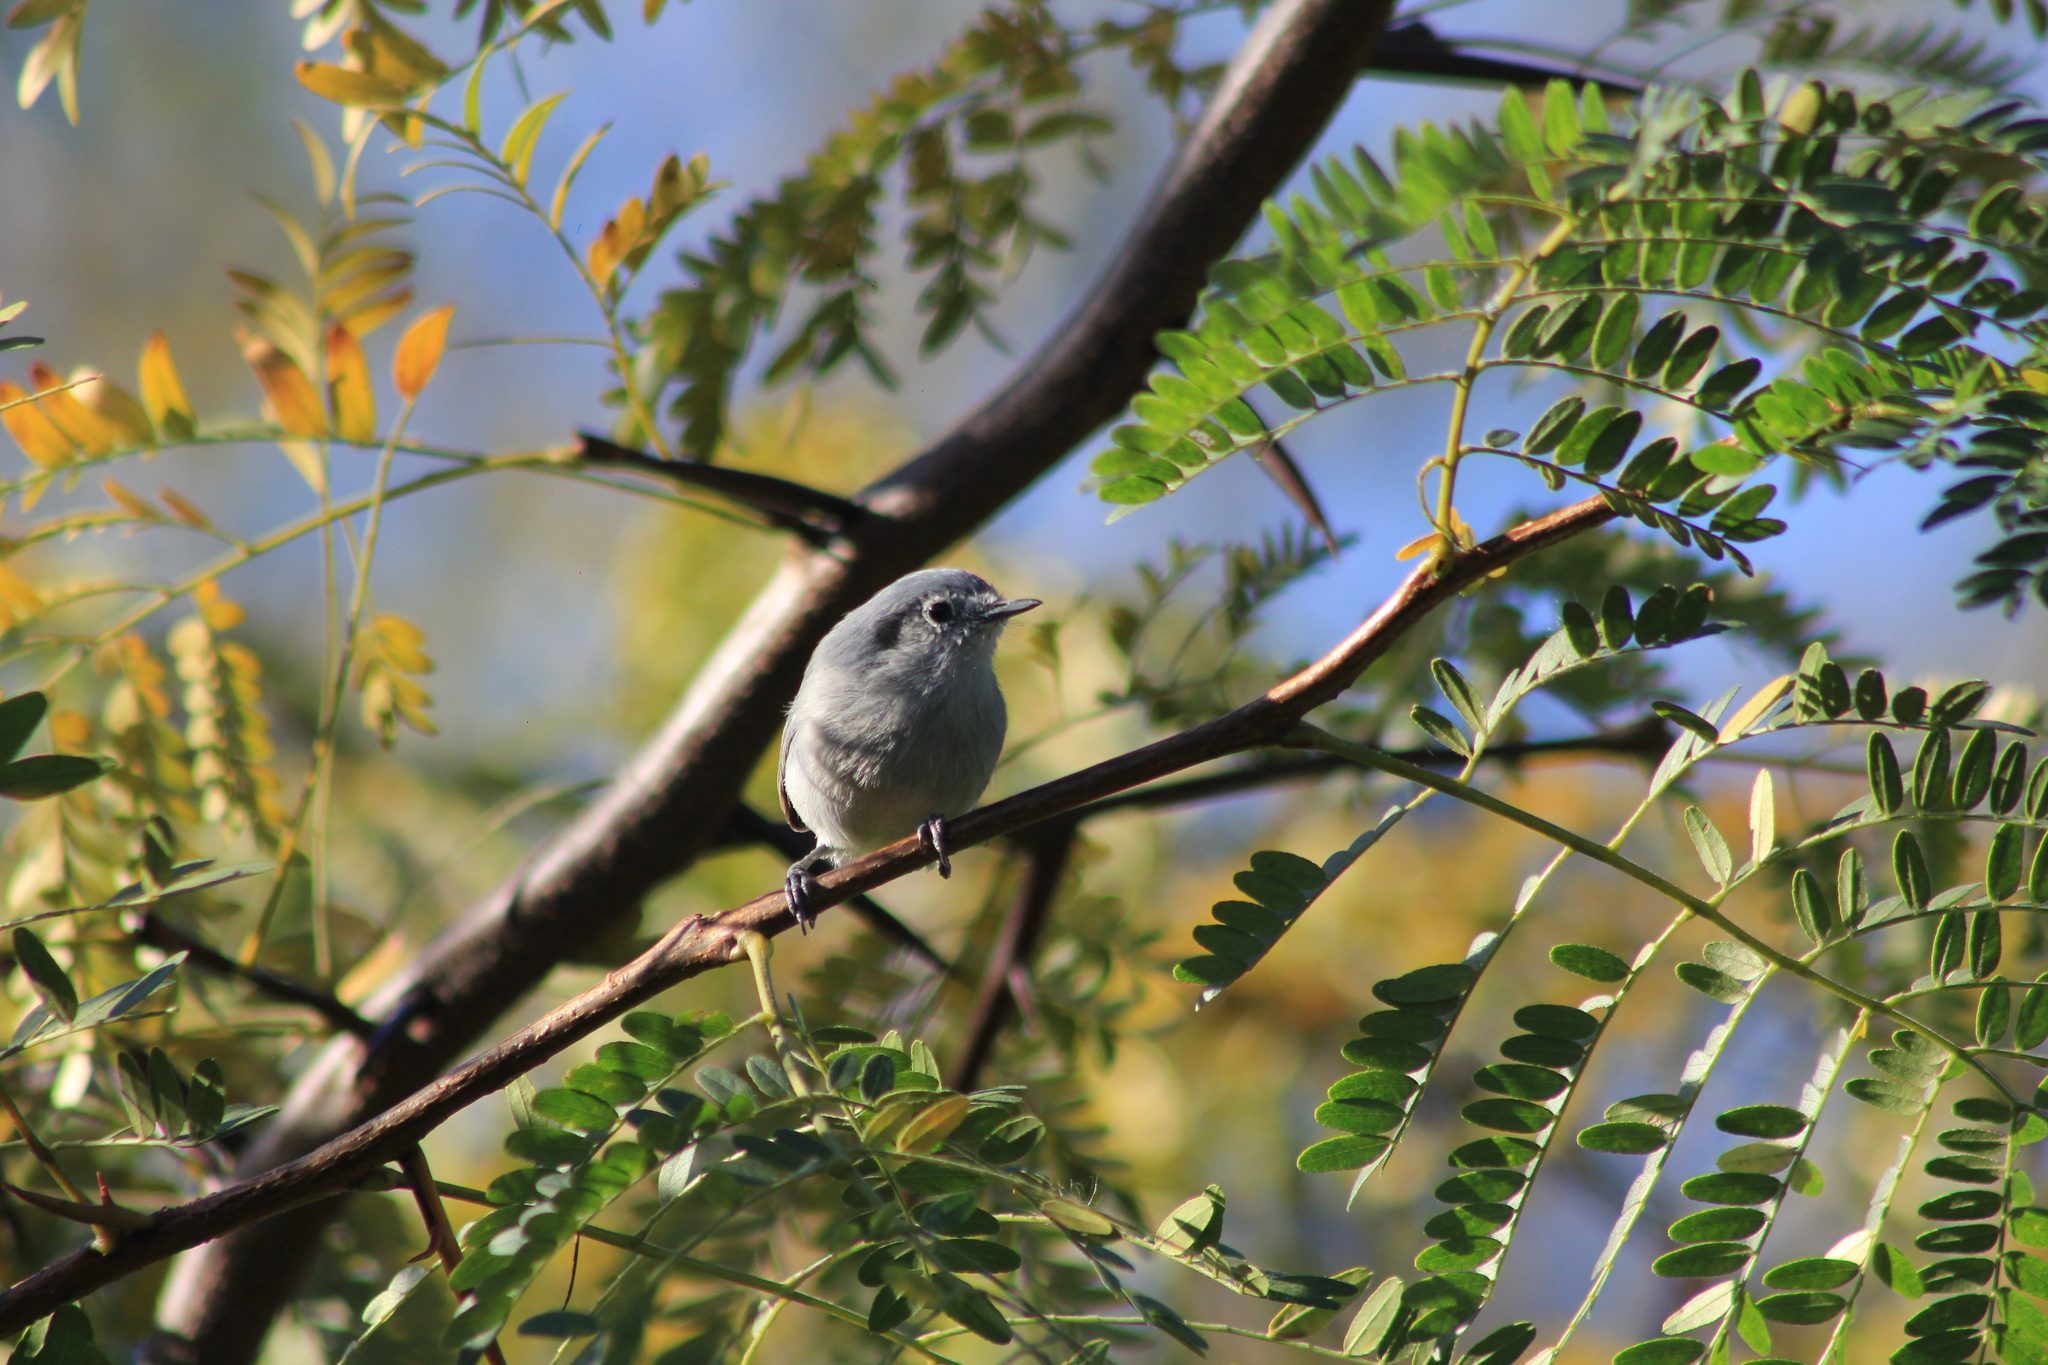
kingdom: Animalia
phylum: Chordata
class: Aves
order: Passeriformes
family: Polioptilidae
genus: Polioptila
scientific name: Polioptila dumicola
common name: Masked gnatcatcher
